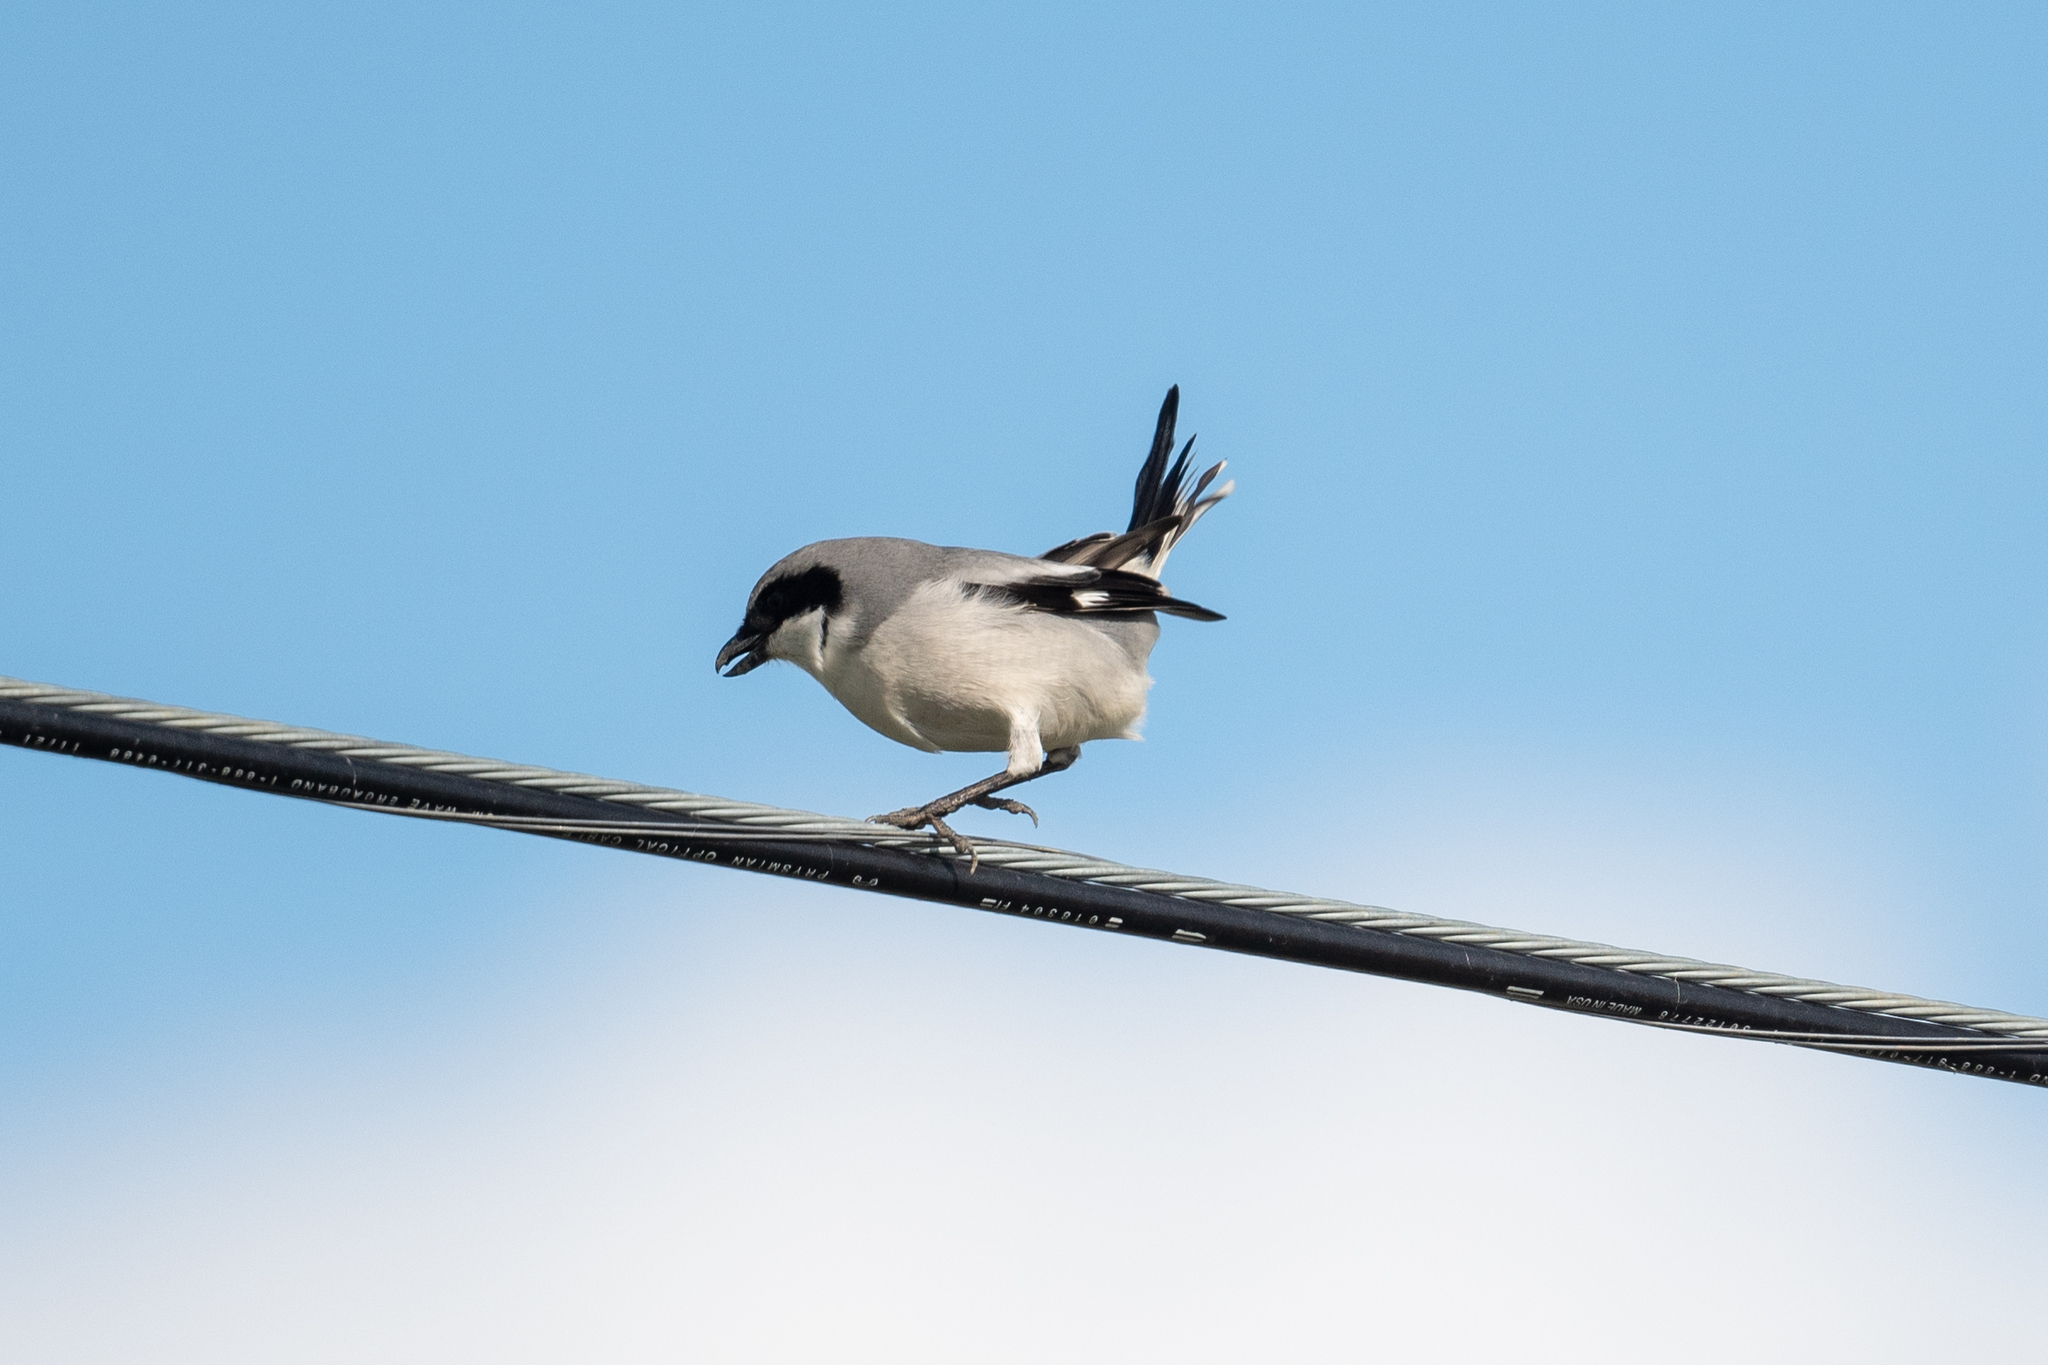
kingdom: Animalia
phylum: Chordata
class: Aves
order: Passeriformes
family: Laniidae
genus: Lanius
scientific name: Lanius ludovicianus
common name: Loggerhead shrike
